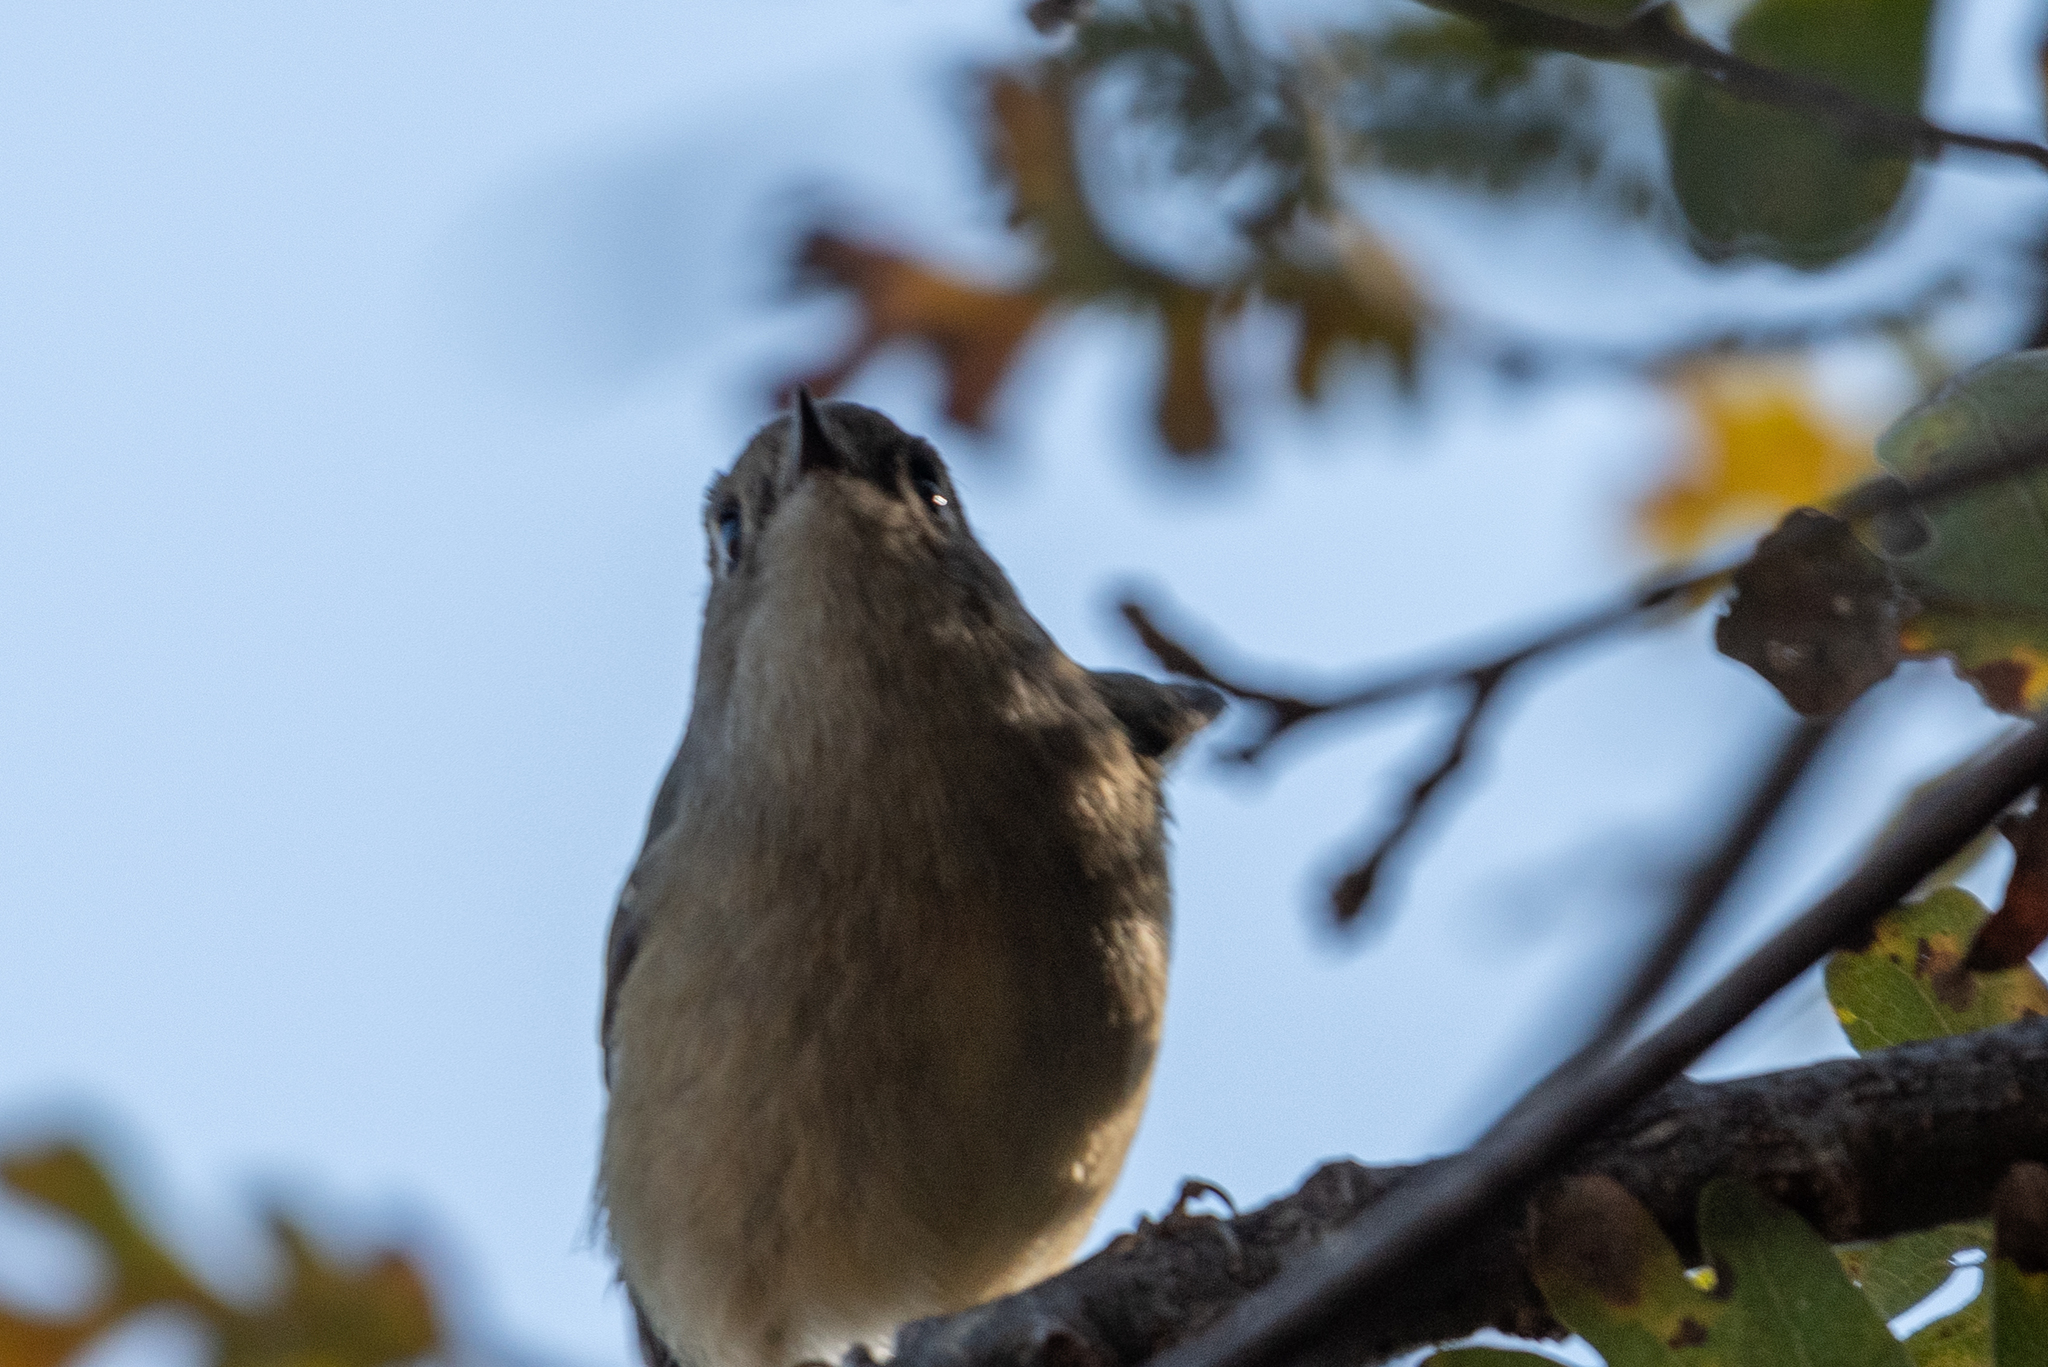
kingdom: Animalia
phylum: Chordata
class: Aves
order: Passeriformes
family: Regulidae
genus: Regulus
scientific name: Regulus calendula
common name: Ruby-crowned kinglet
